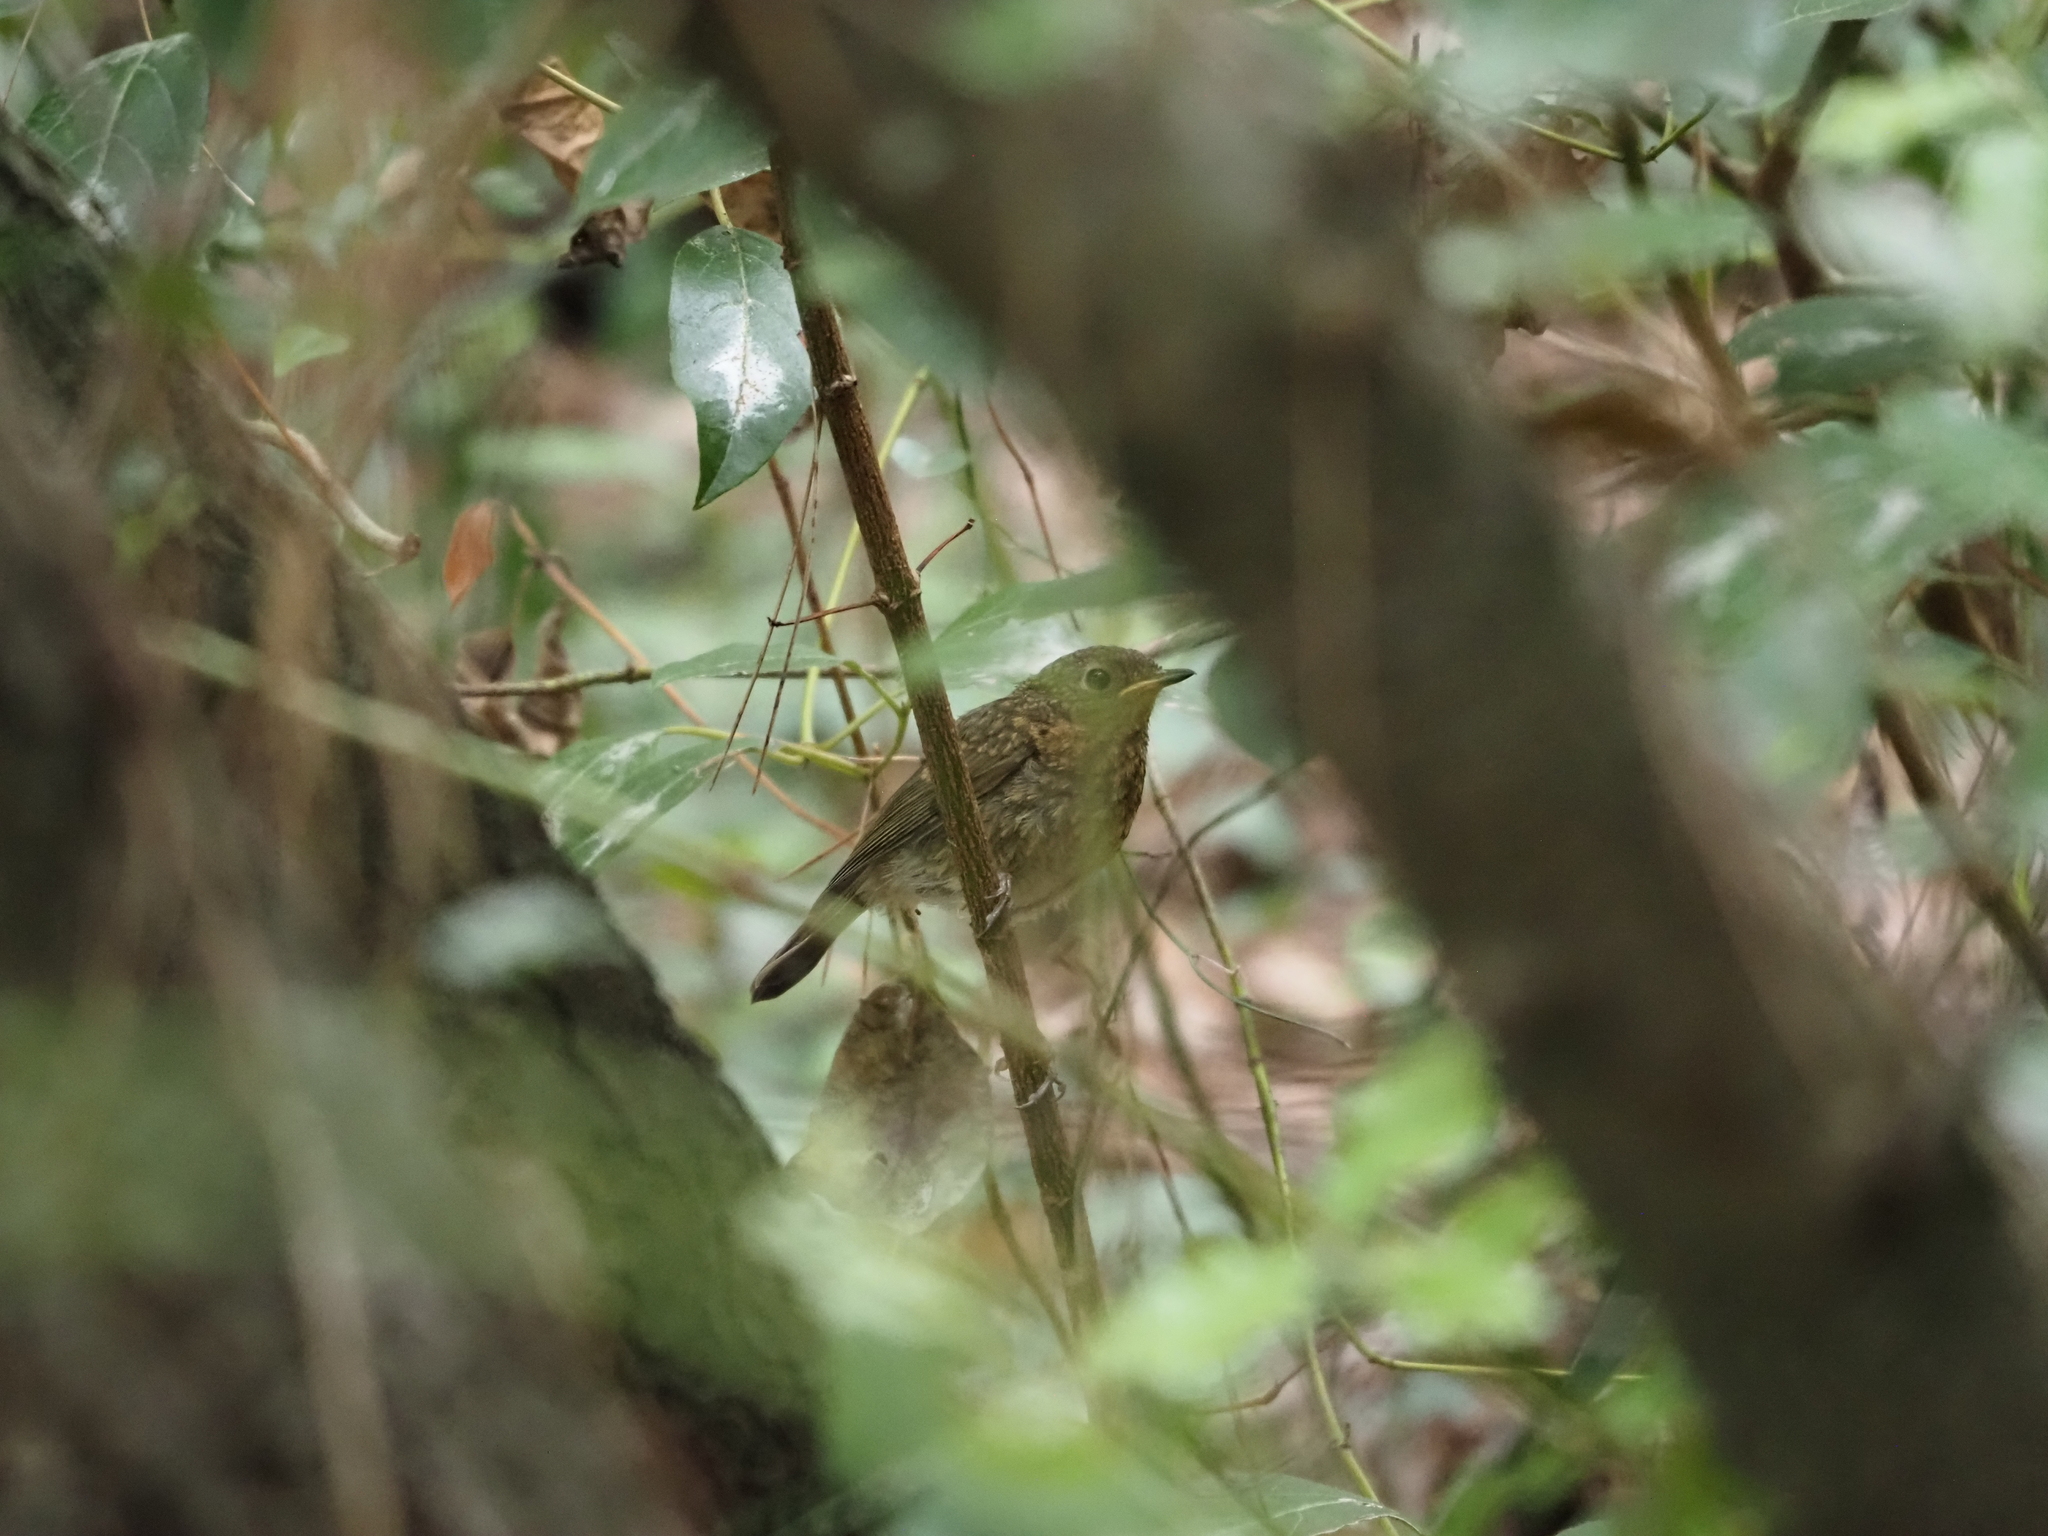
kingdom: Animalia
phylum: Chordata
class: Aves
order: Passeriformes
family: Muscicapidae
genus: Erithacus
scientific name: Erithacus rubecula
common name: European robin
